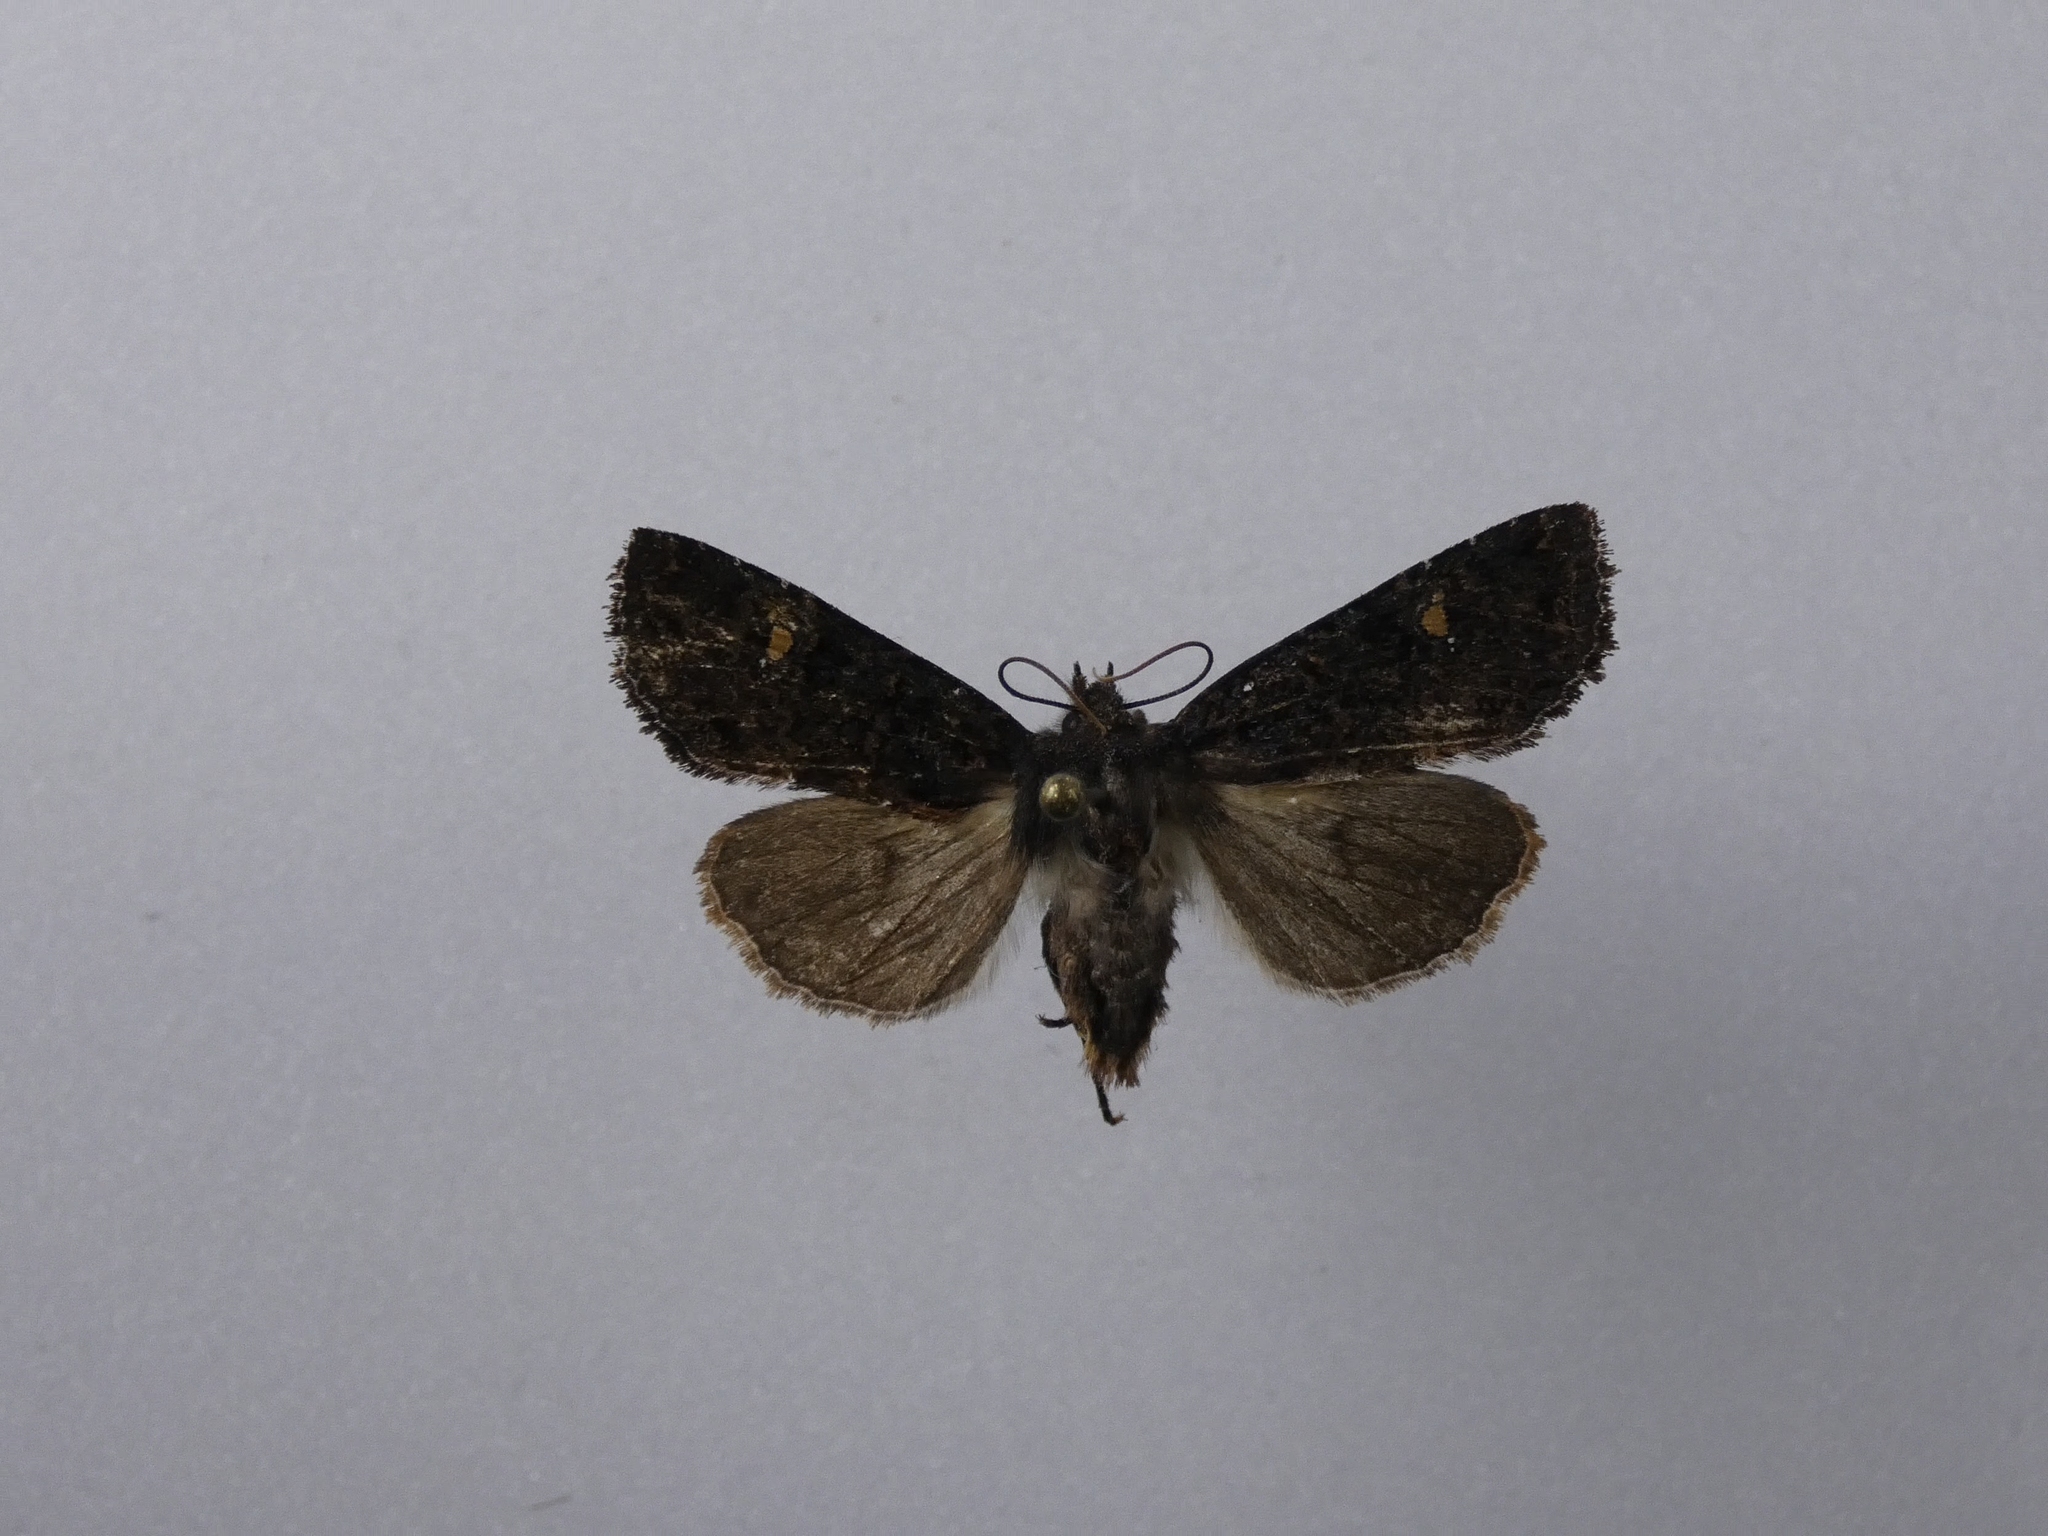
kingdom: Animalia
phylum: Arthropoda
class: Insecta
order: Lepidoptera
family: Noctuidae
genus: Meterana
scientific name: Meterana vitiosa
